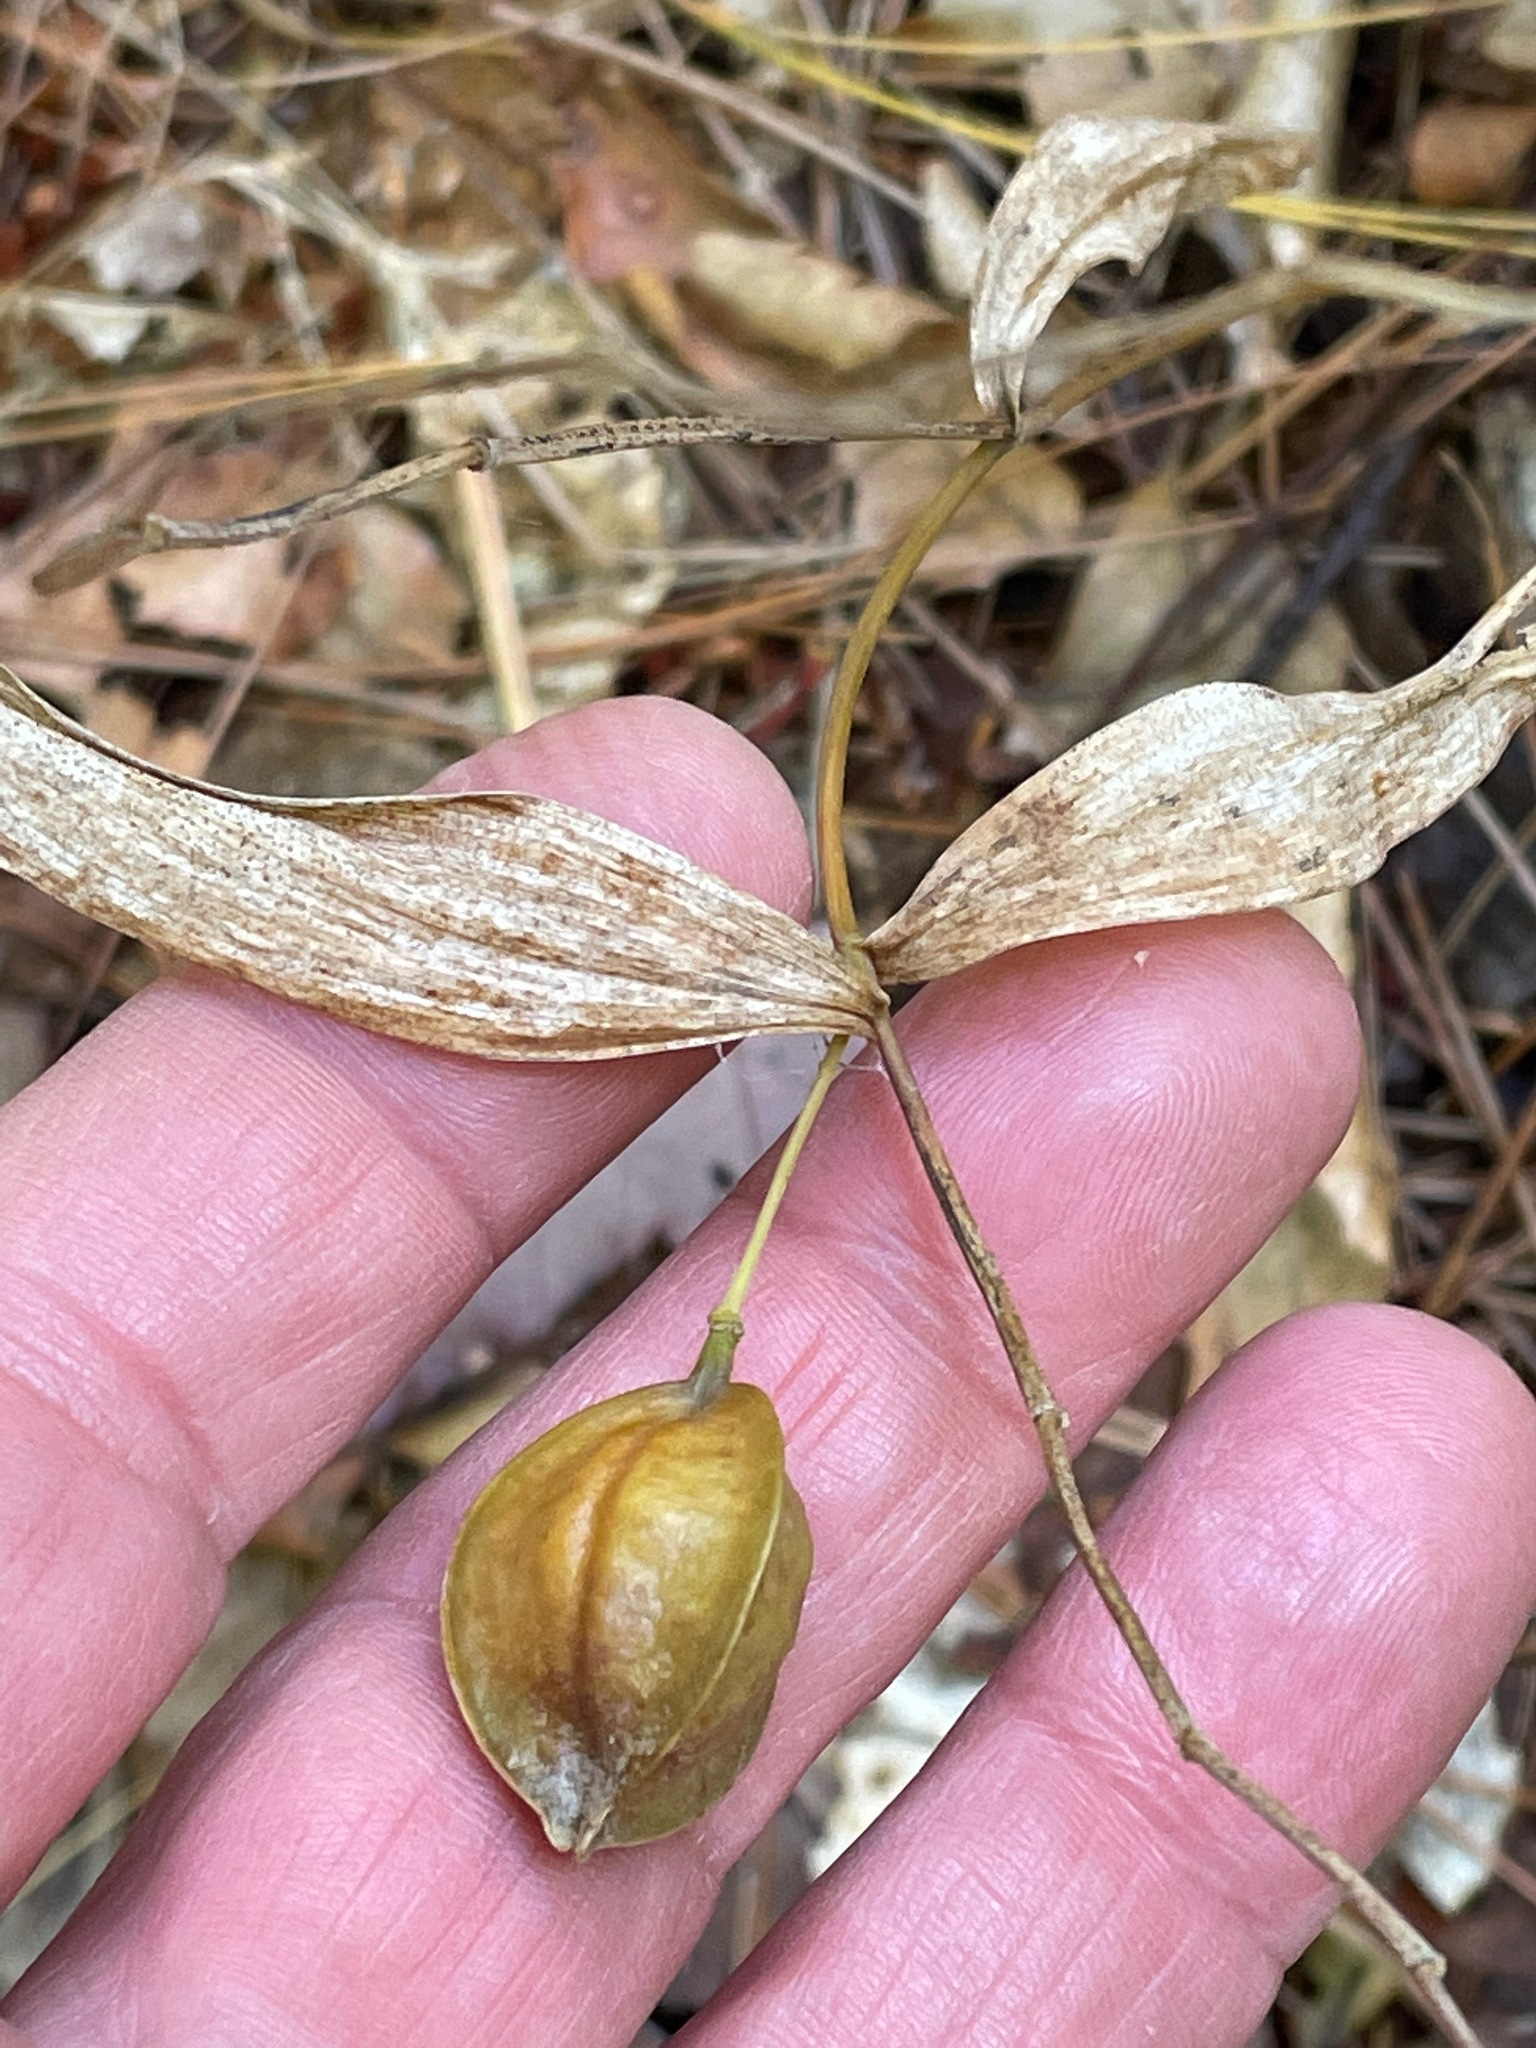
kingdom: Plantae
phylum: Tracheophyta
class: Liliopsida
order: Liliales
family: Colchicaceae
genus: Uvularia
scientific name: Uvularia sessilifolia
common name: Straw-lily
